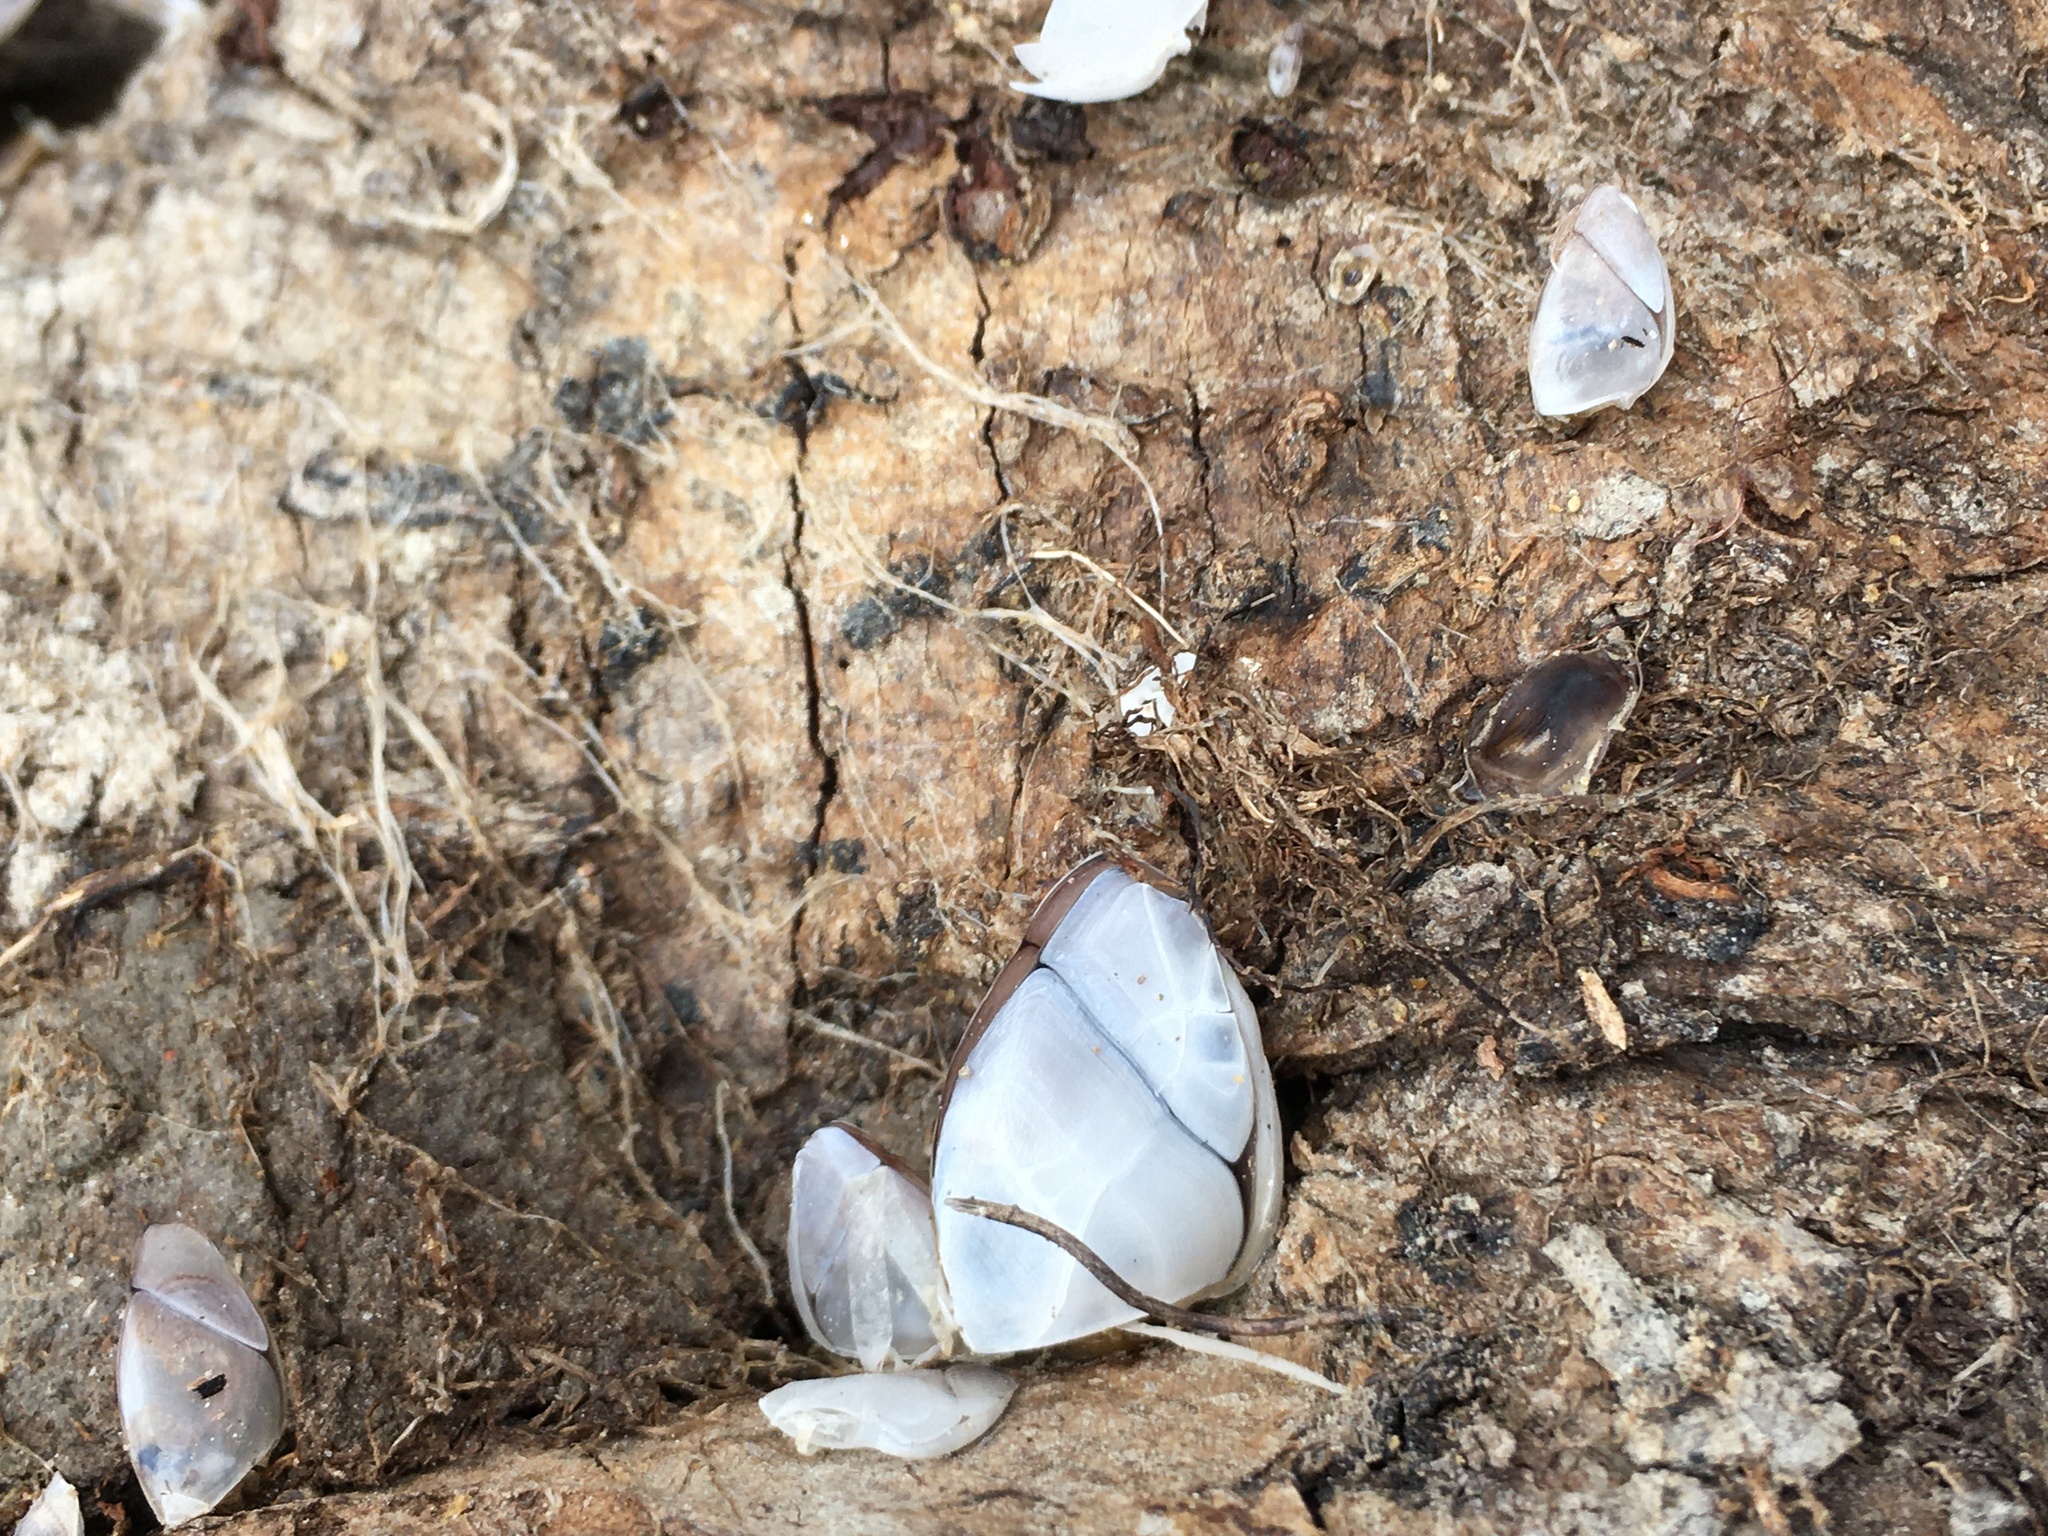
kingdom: Animalia
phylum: Arthropoda
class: Maxillopoda
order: Pedunculata
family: Lepadidae
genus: Lepas
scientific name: Lepas australis
